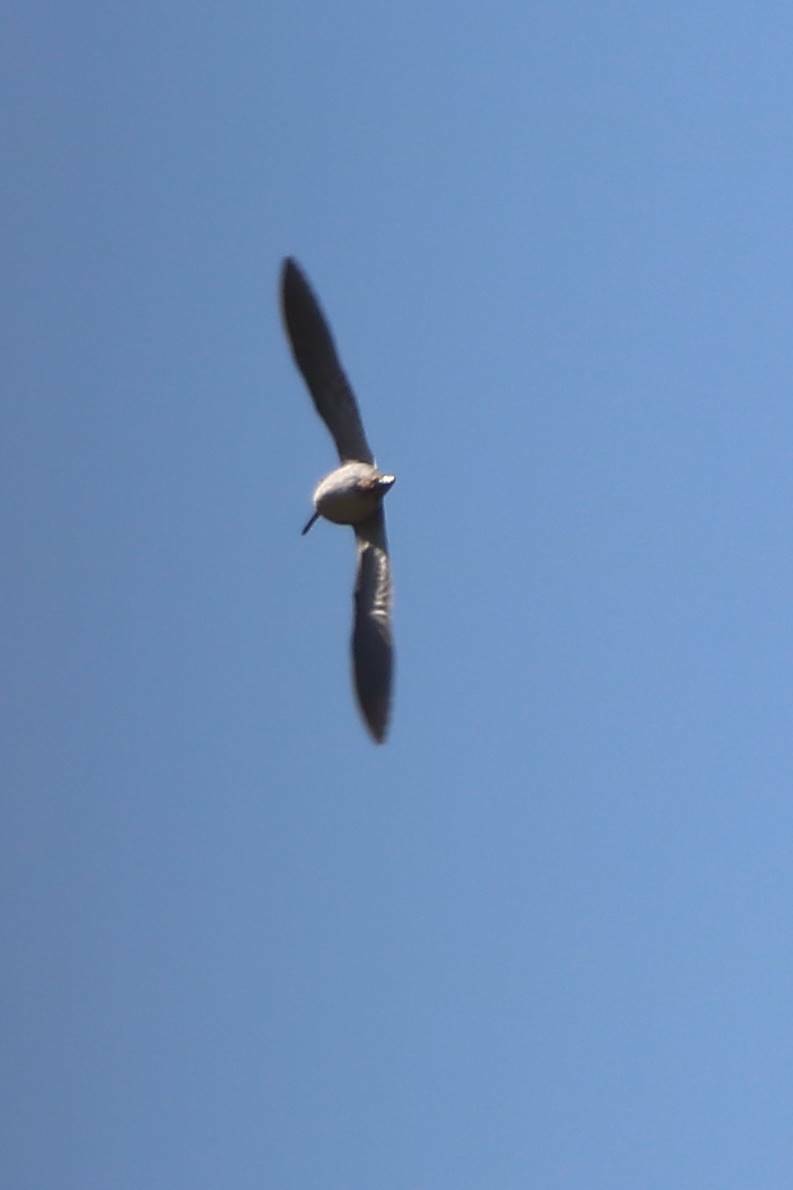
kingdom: Animalia
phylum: Chordata
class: Aves
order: Charadriiformes
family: Scolopacidae
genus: Gallinago
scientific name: Gallinago gallinago
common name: Common snipe
